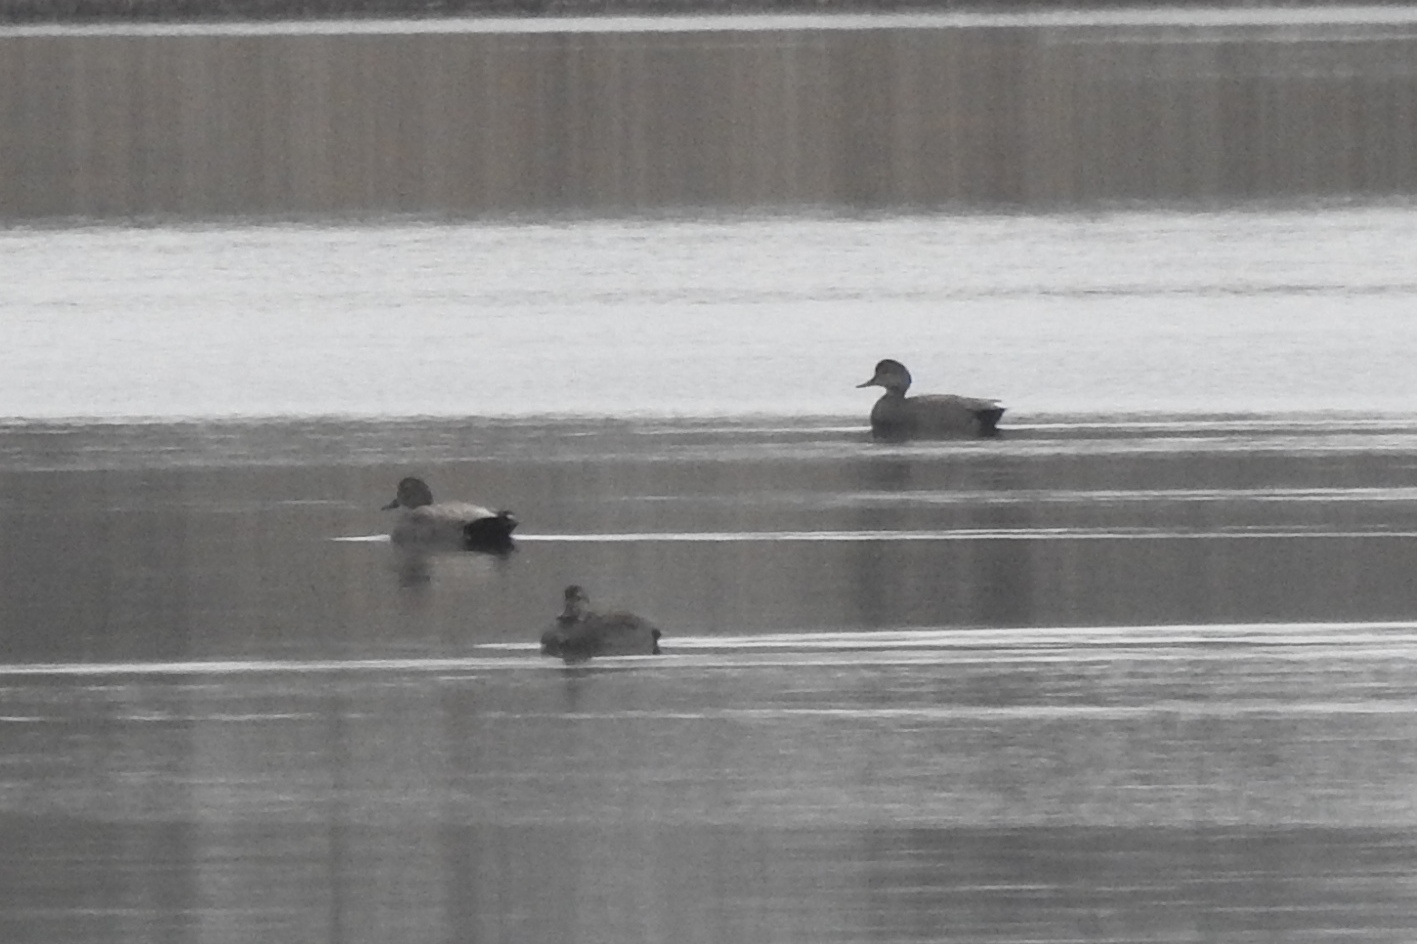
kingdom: Animalia
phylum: Chordata
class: Aves
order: Anseriformes
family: Anatidae
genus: Mareca
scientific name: Mareca strepera
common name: Gadwall
